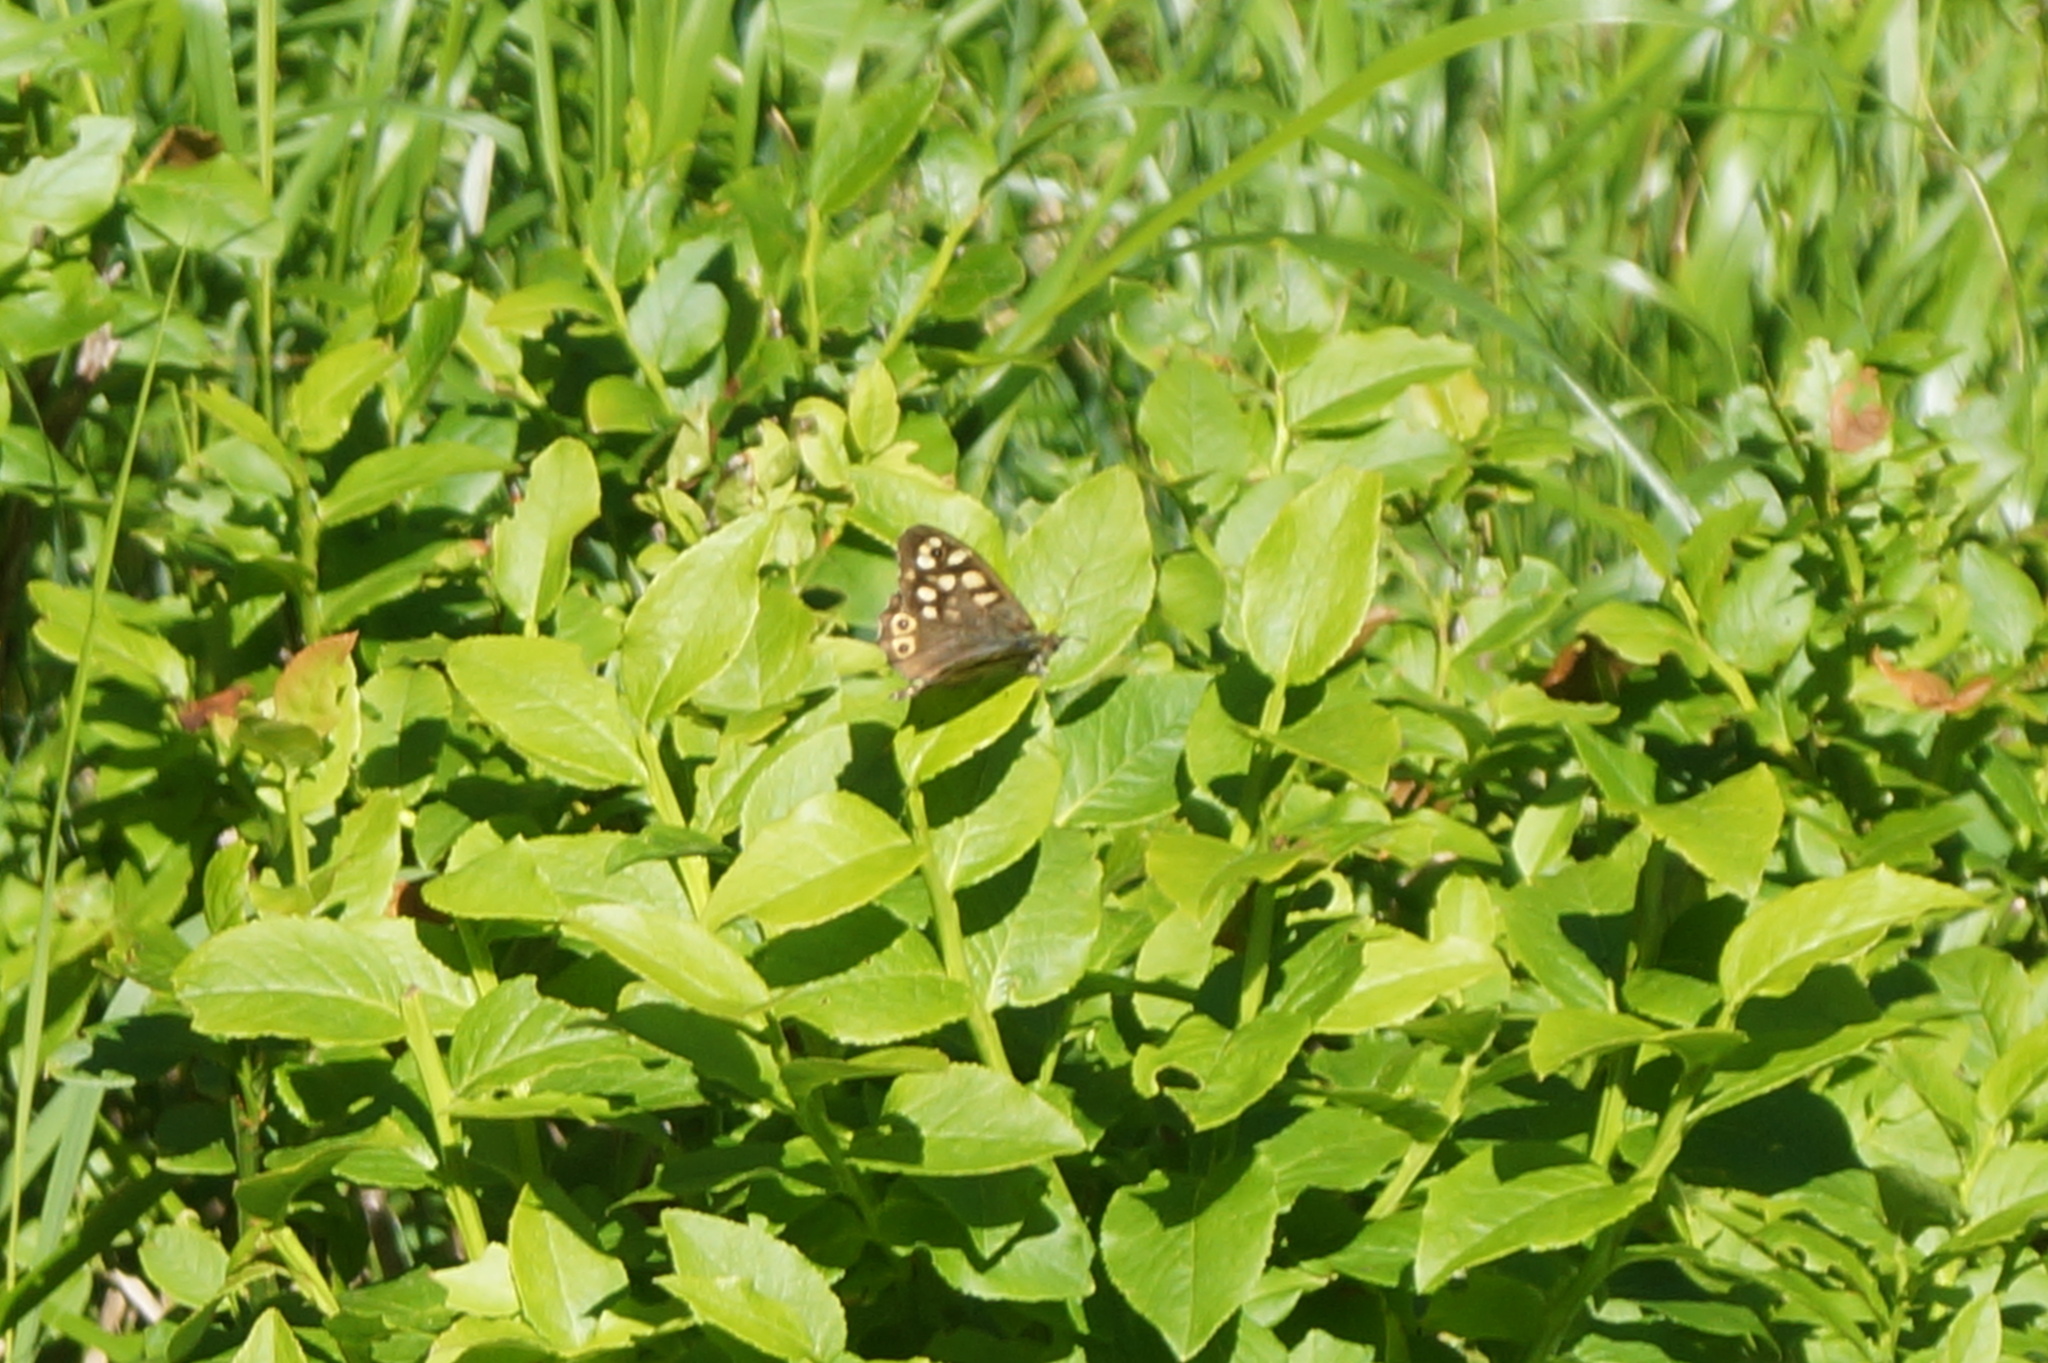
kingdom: Animalia
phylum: Arthropoda
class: Insecta
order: Lepidoptera
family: Nymphalidae
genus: Pararge
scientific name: Pararge aegeria
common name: Speckled wood
